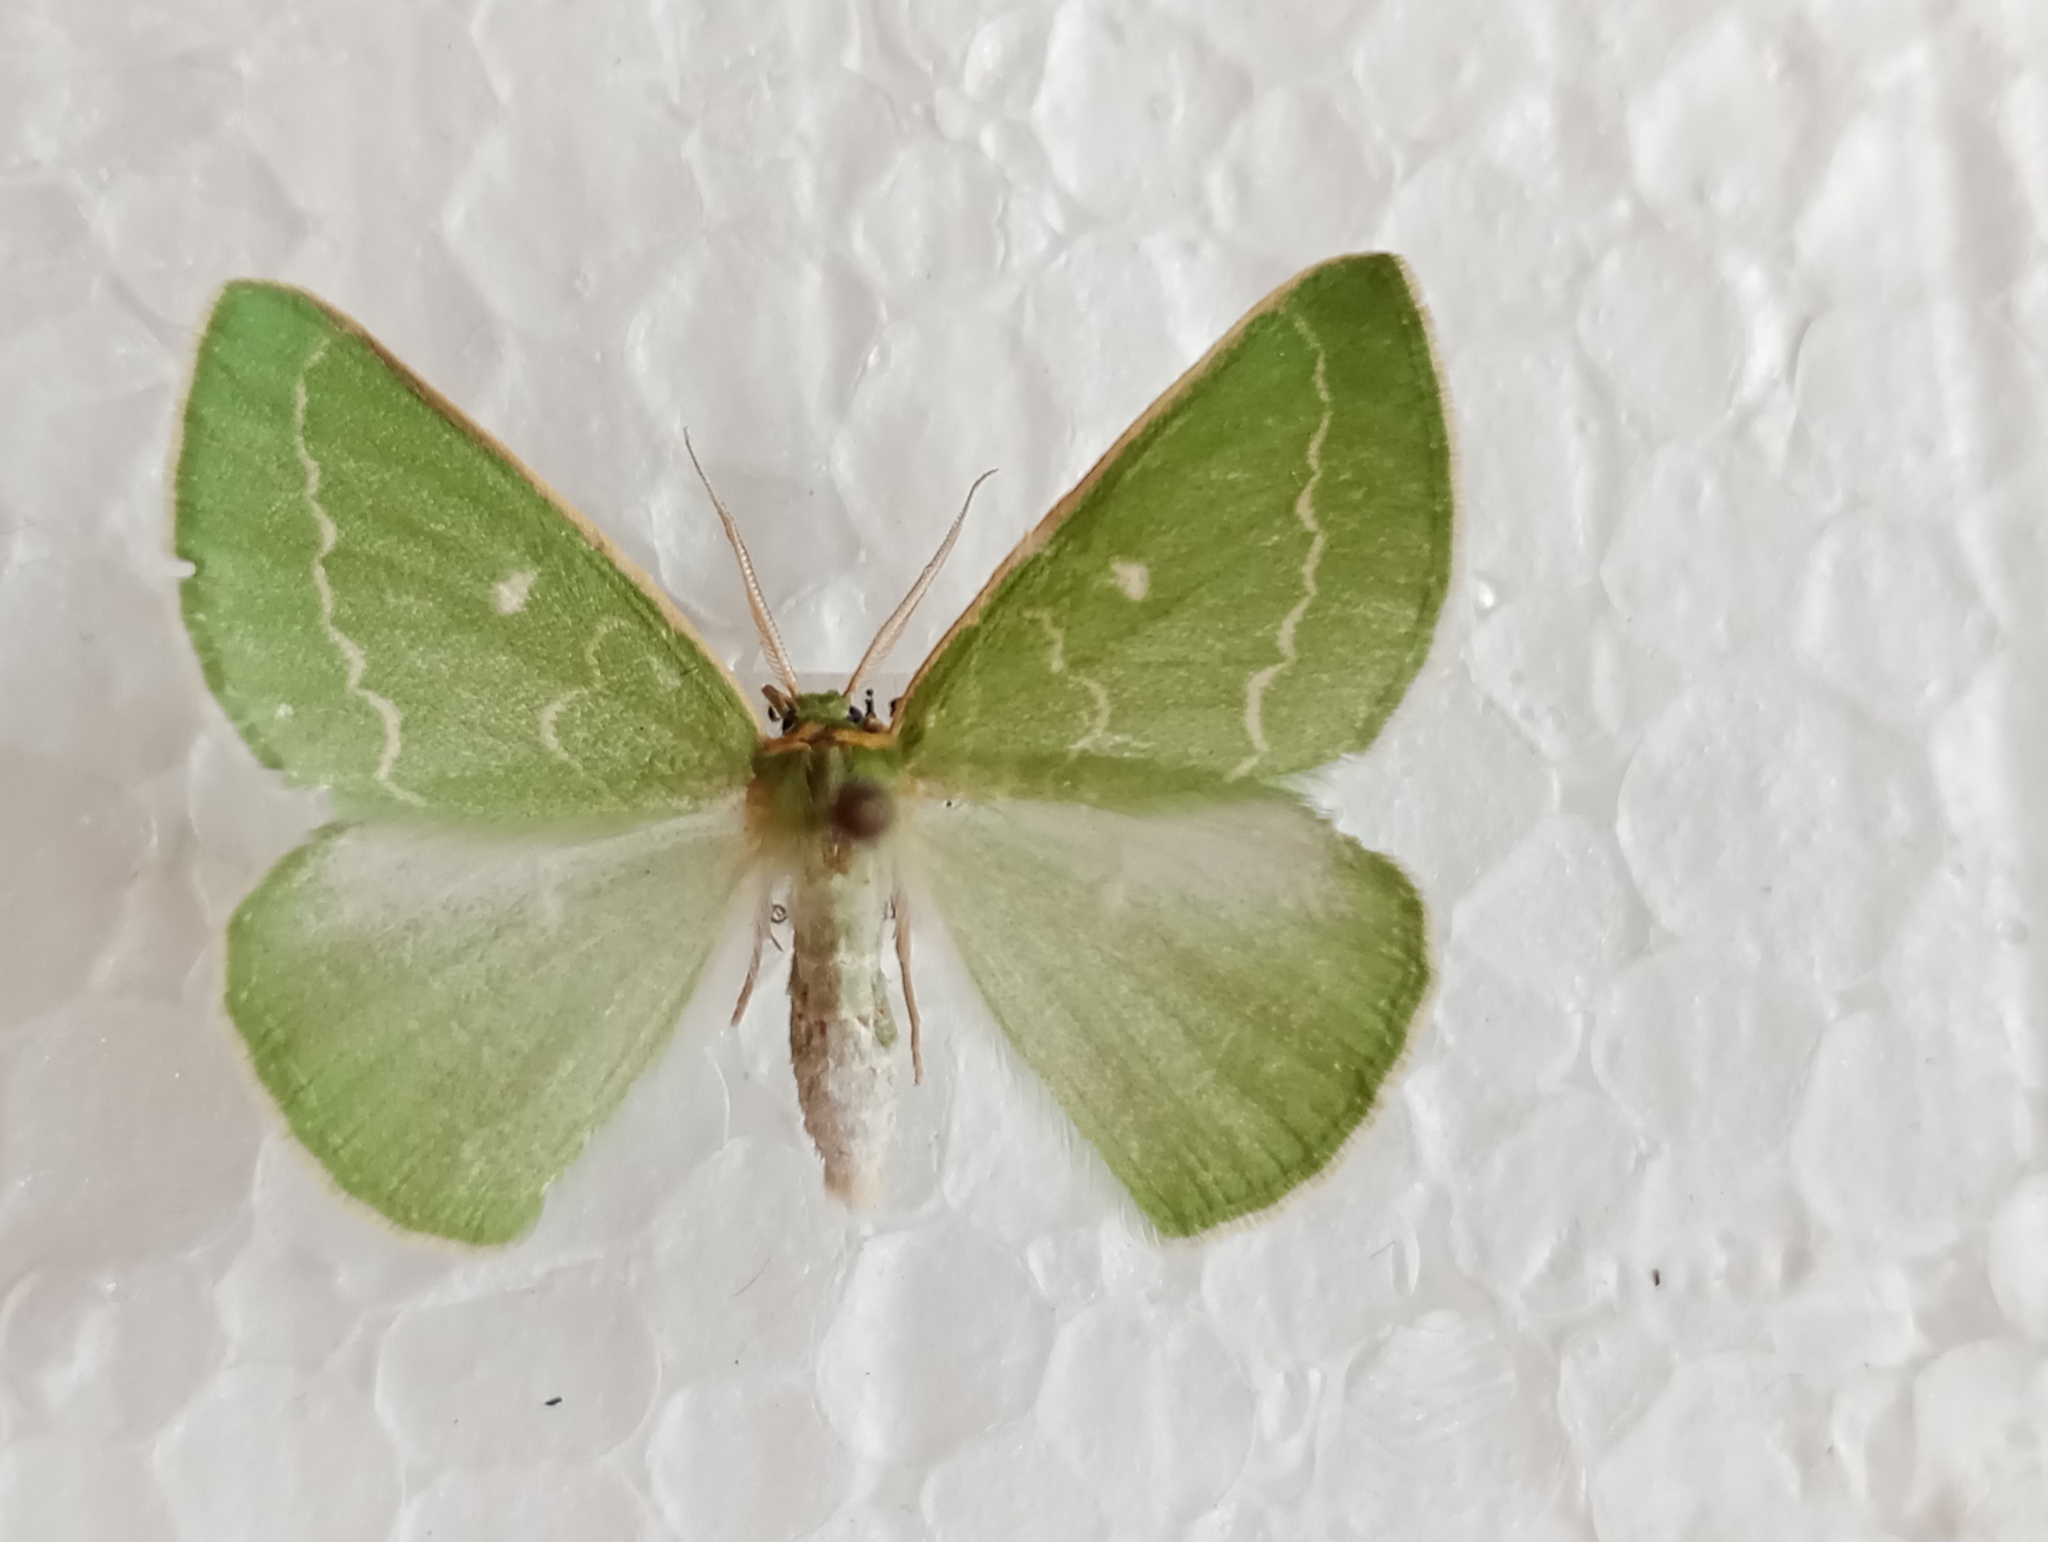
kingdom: Animalia
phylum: Arthropoda
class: Insecta
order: Lepidoptera
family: Geometridae
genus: Thetidia
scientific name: Thetidia smaragdaria
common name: Essex emerald
